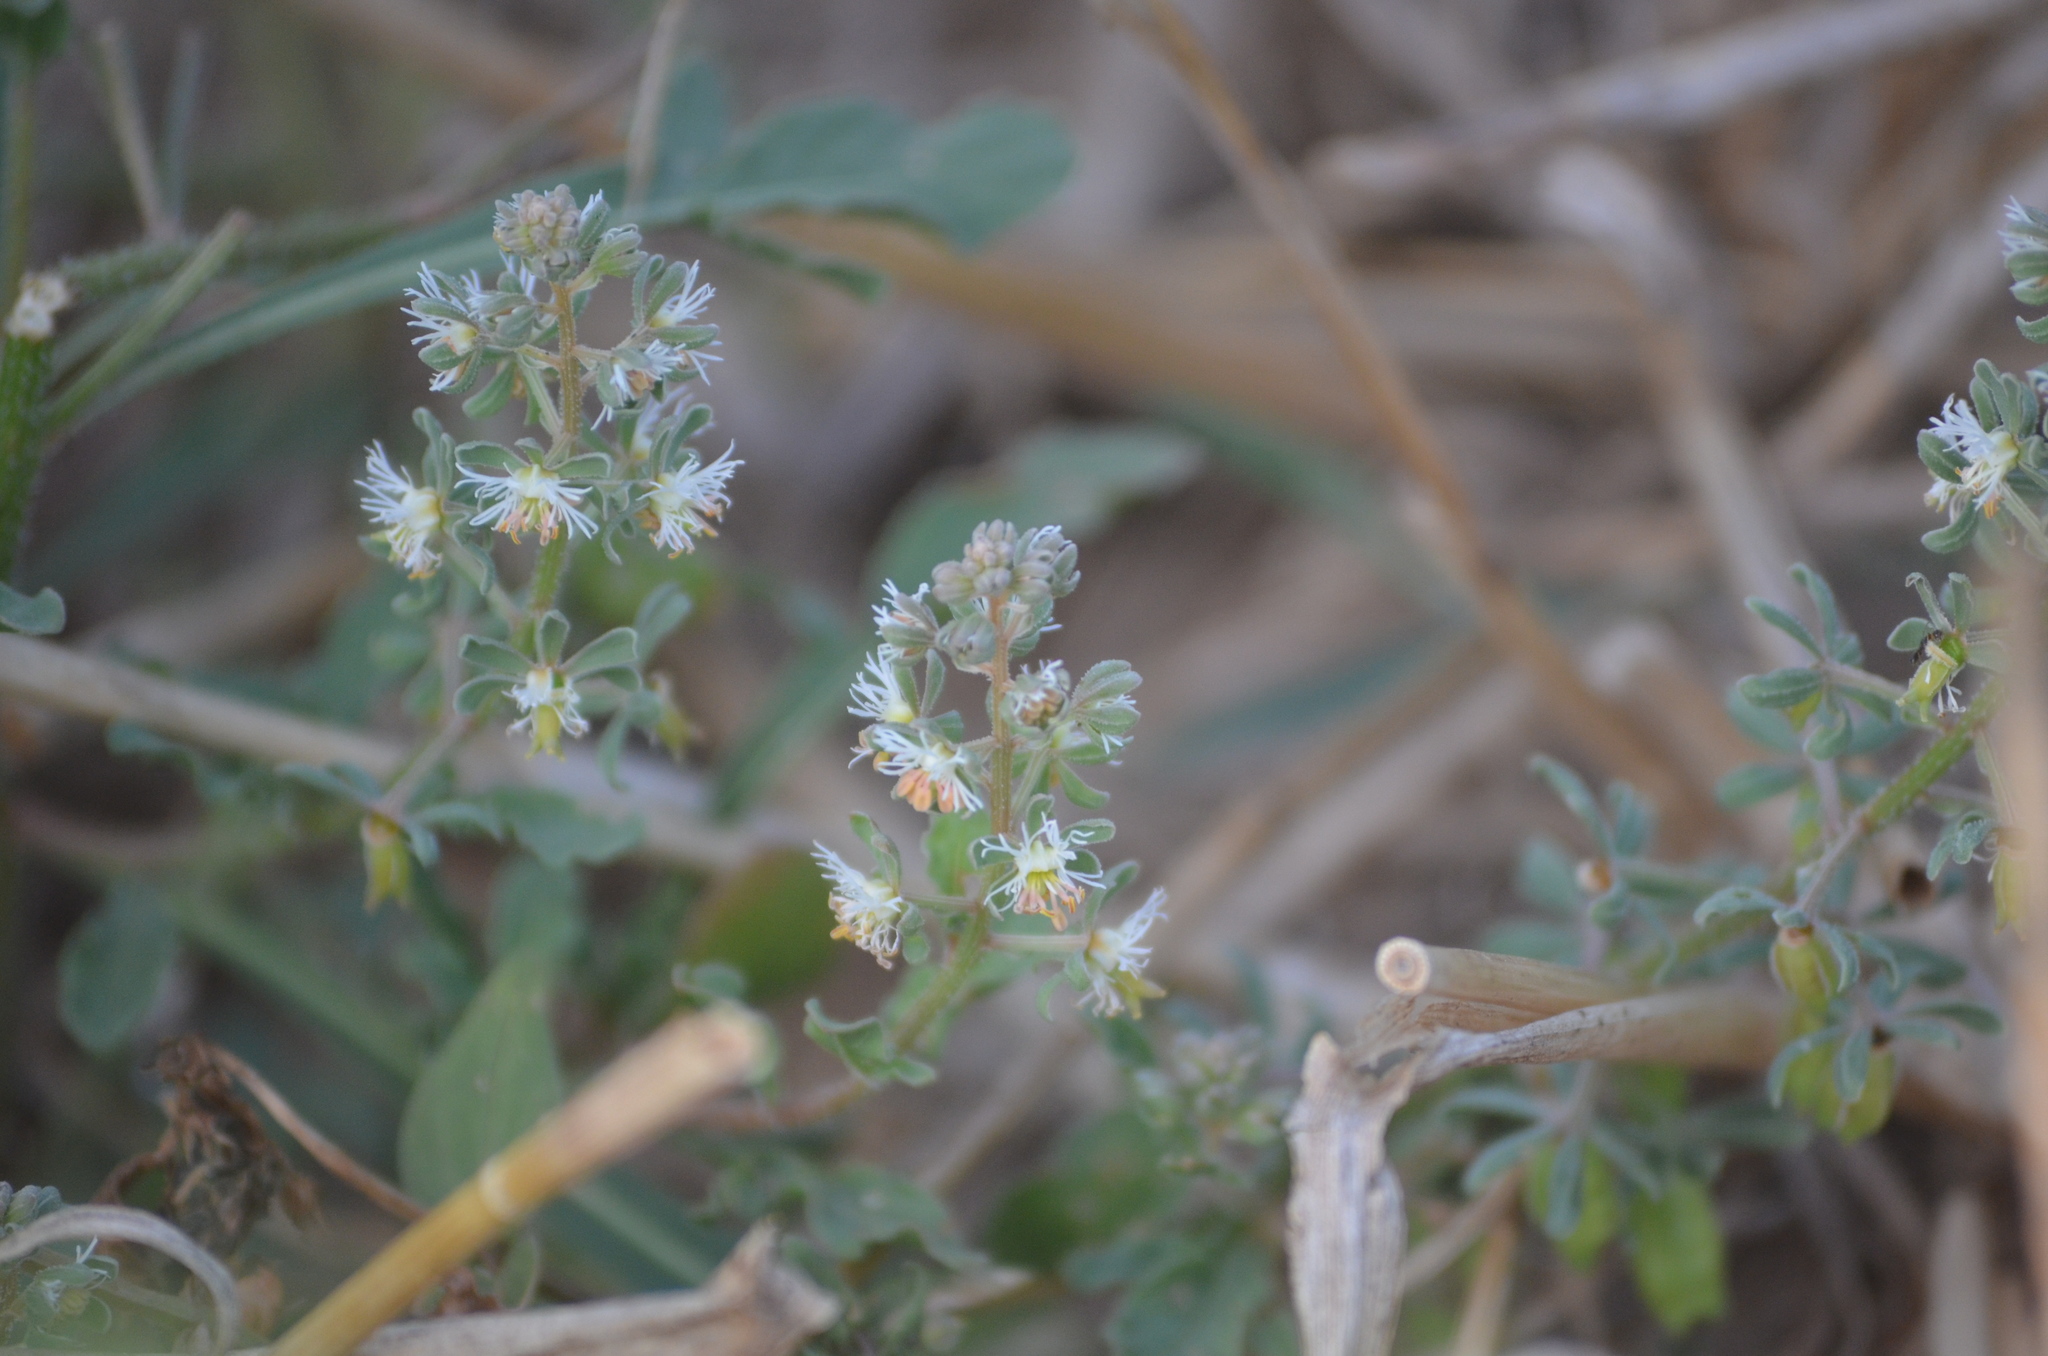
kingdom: Plantae
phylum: Tracheophyta
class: Magnoliopsida
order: Brassicales
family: Resedaceae
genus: Reseda
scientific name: Reseda phyteuma
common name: Corn mignonette
